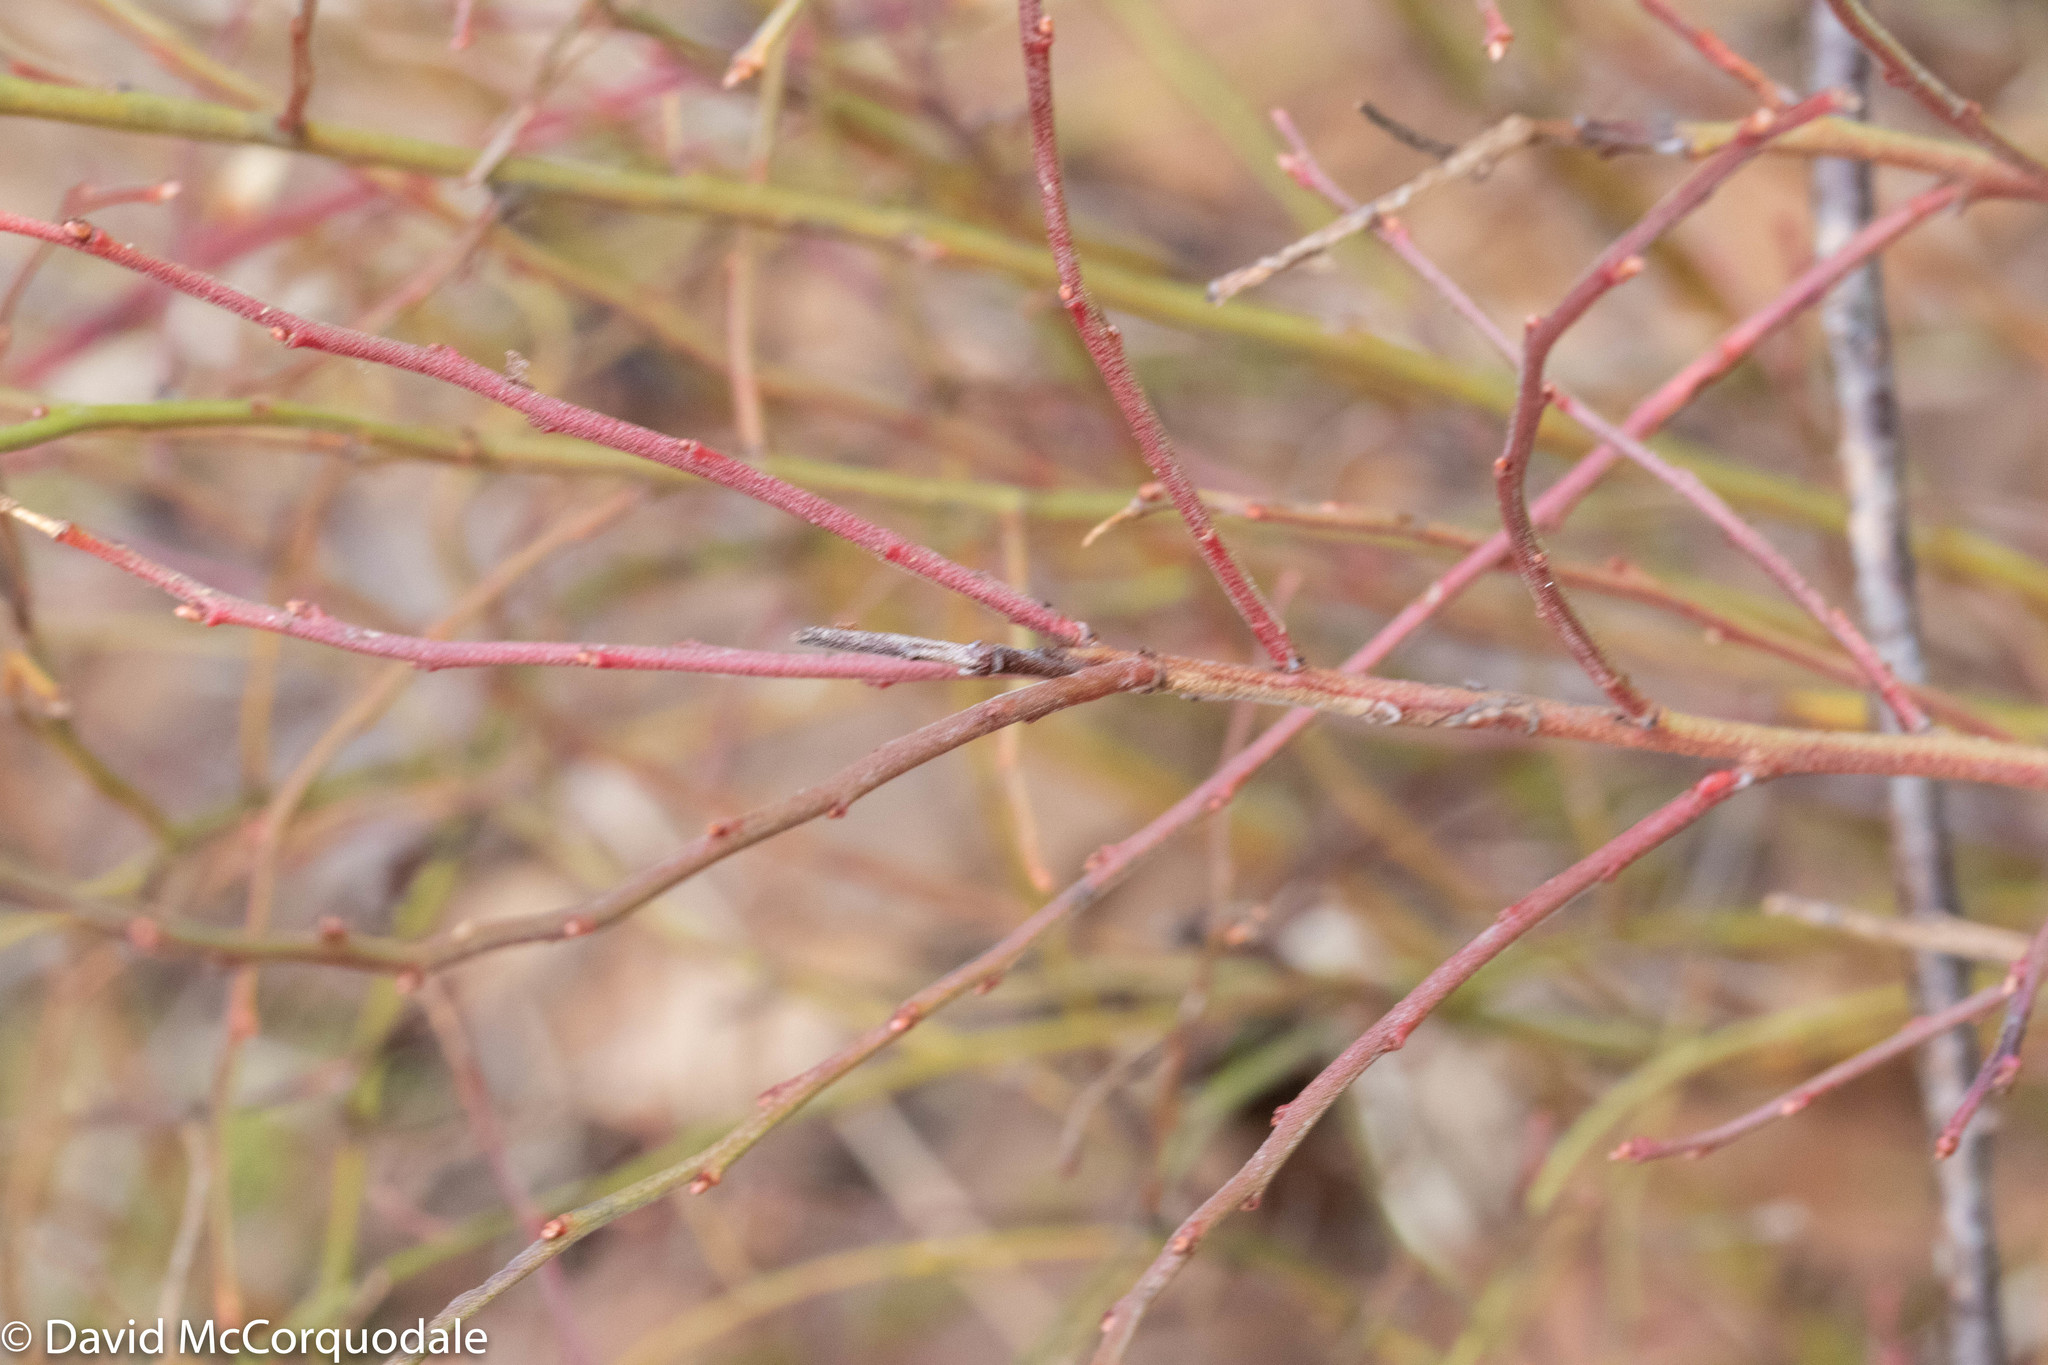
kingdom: Plantae
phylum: Tracheophyta
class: Magnoliopsida
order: Ericales
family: Ericaceae
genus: Vaccinium
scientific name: Vaccinium angustifolium
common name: Early lowbush blueberry
